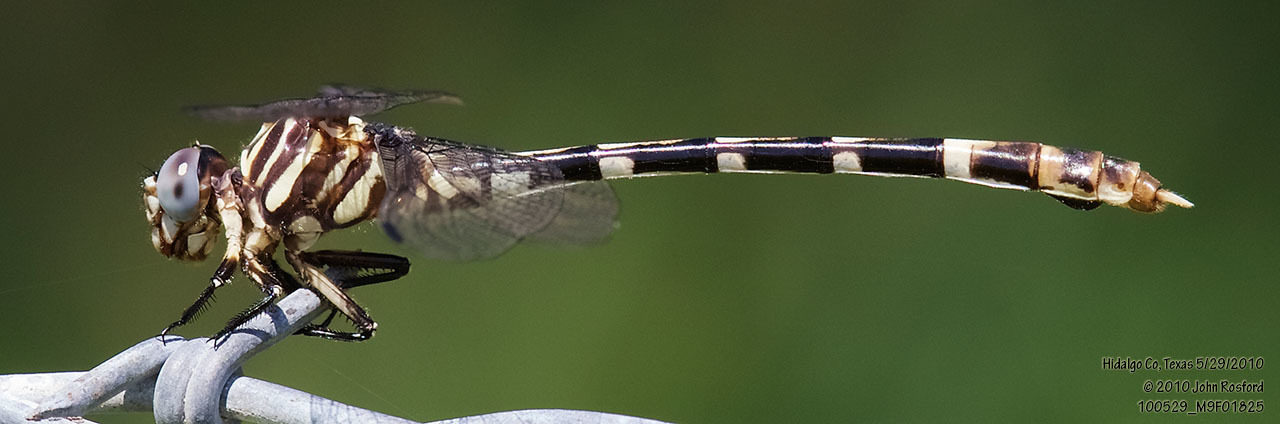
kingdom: Animalia
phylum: Arthropoda
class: Insecta
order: Odonata
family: Gomphidae
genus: Phyllogomphoides
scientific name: Phyllogomphoides albrighti
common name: Five-striped leaftail
